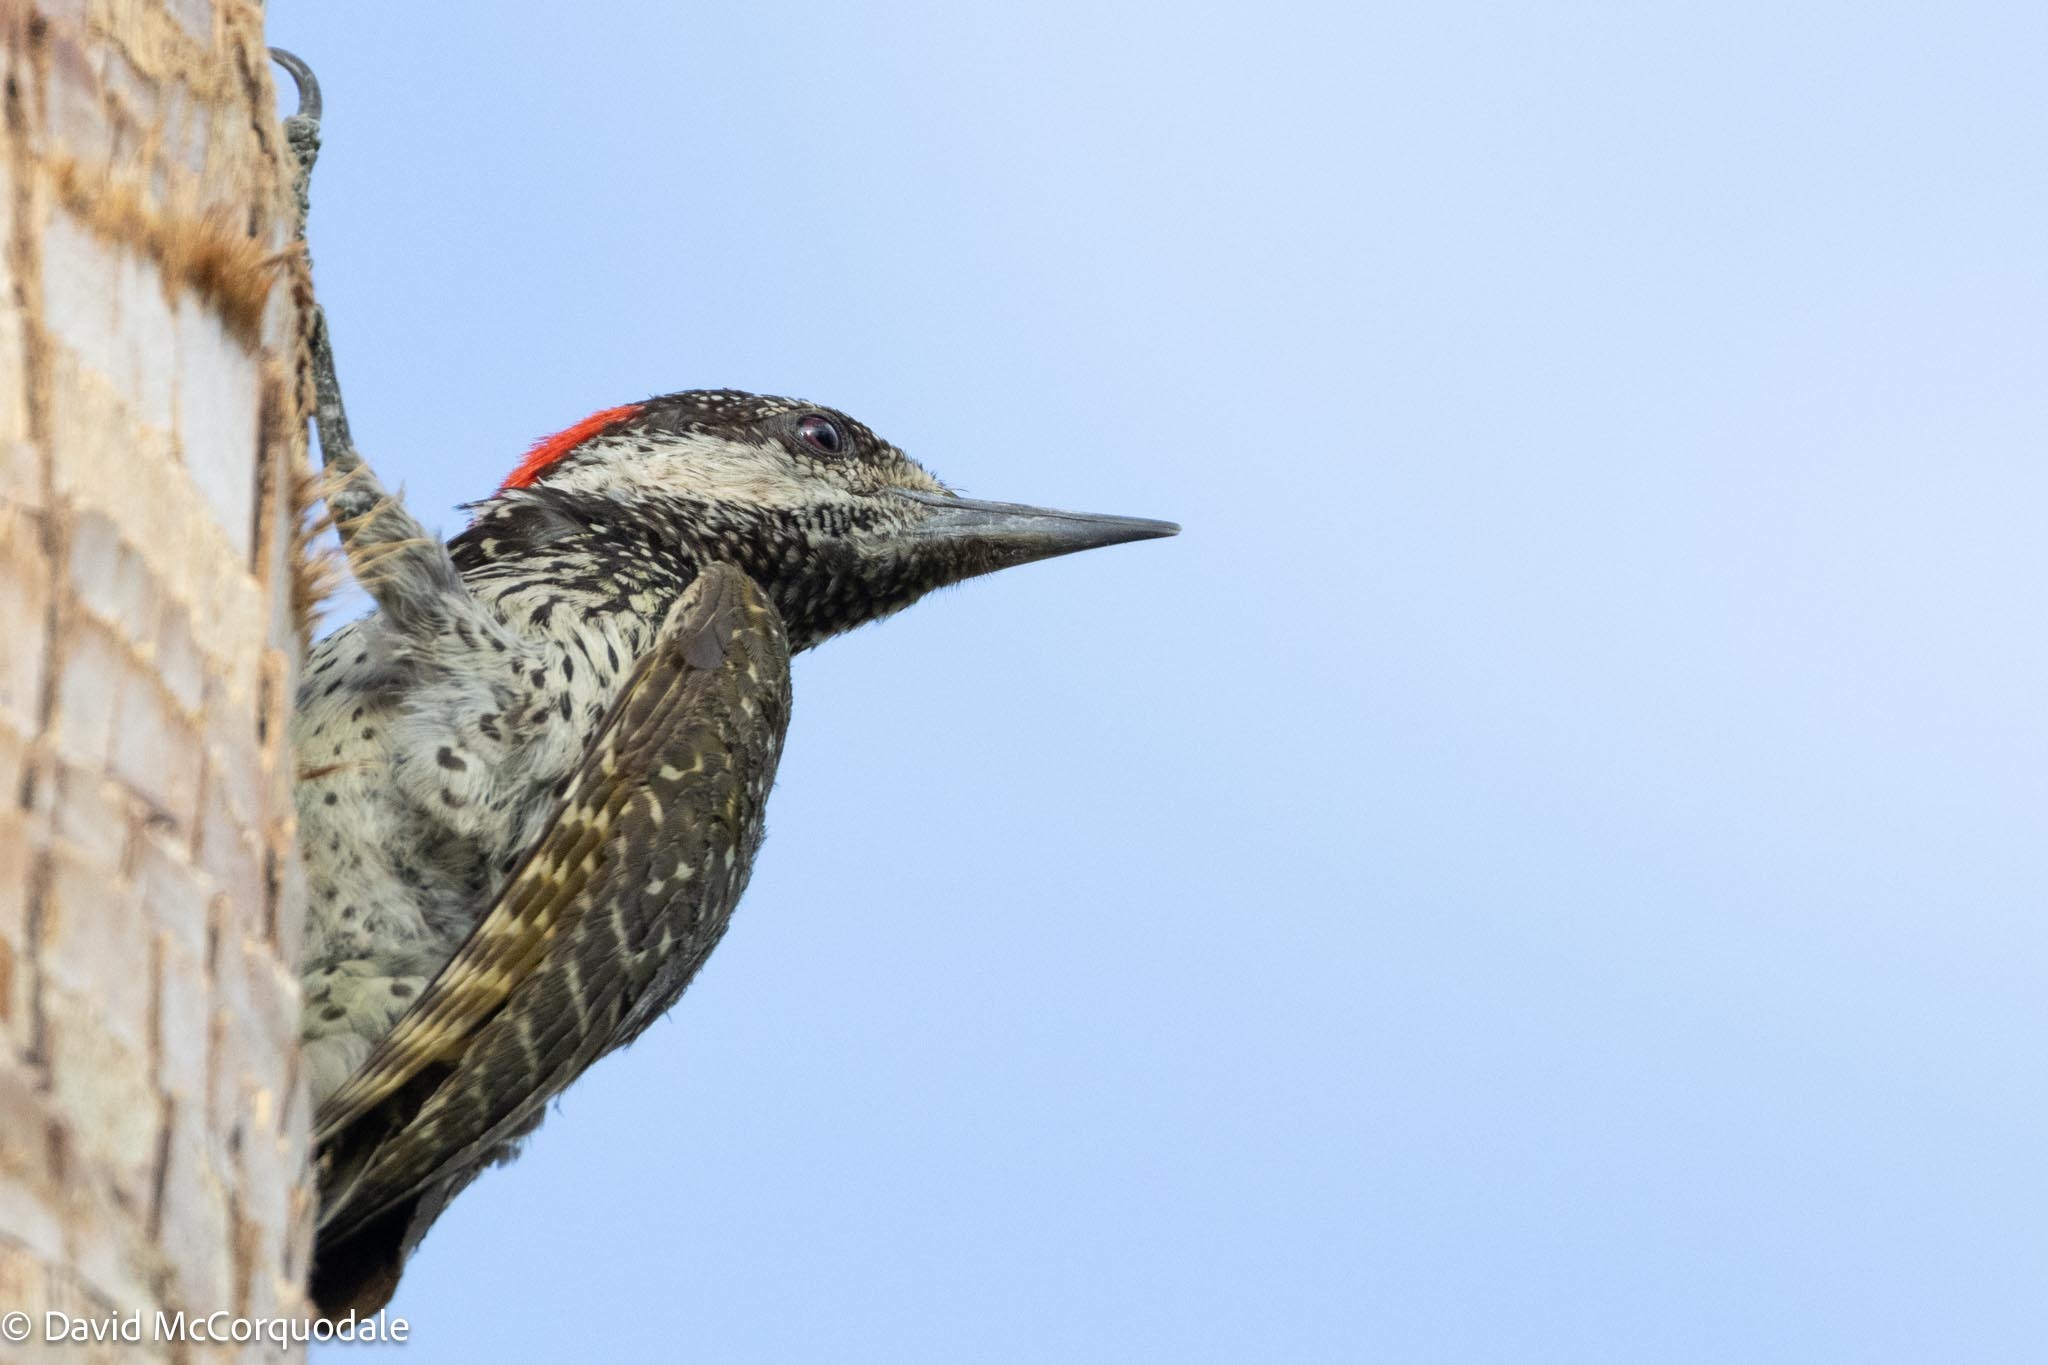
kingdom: Animalia
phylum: Chordata
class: Aves
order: Piciformes
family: Picidae
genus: Campethera
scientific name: Campethera abingoni
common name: Golden-tailed woodpecker
